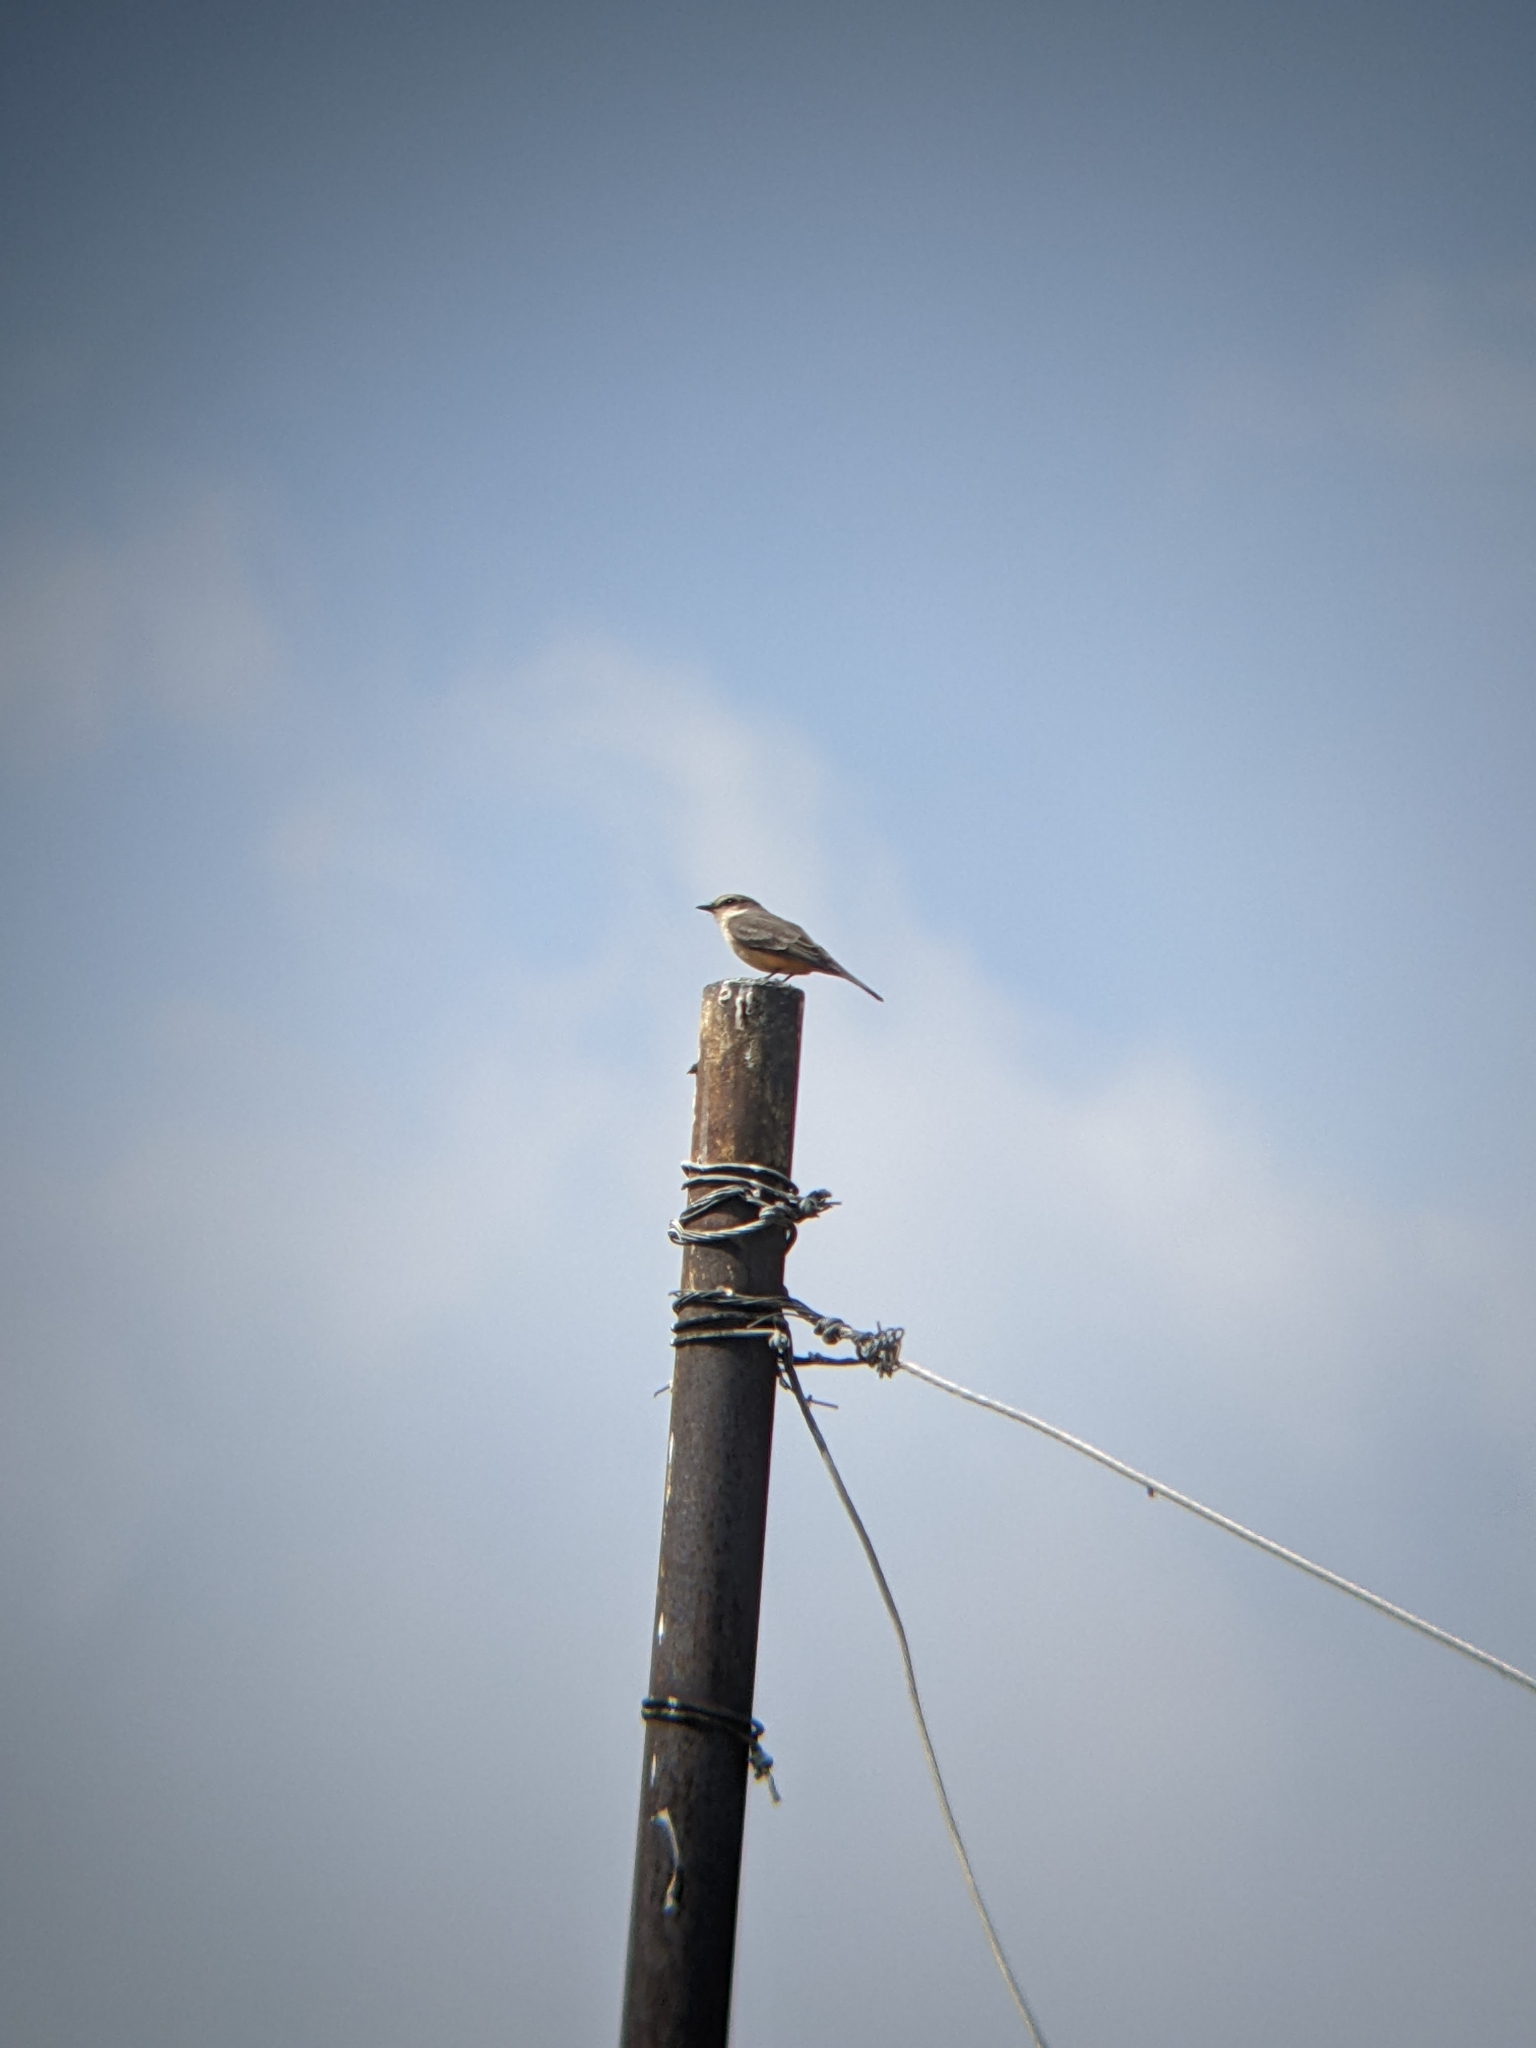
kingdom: Animalia
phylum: Chordata
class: Aves
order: Passeriformes
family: Tyrannidae
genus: Pyrocephalus
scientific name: Pyrocephalus rubinus
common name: Vermilion flycatcher
